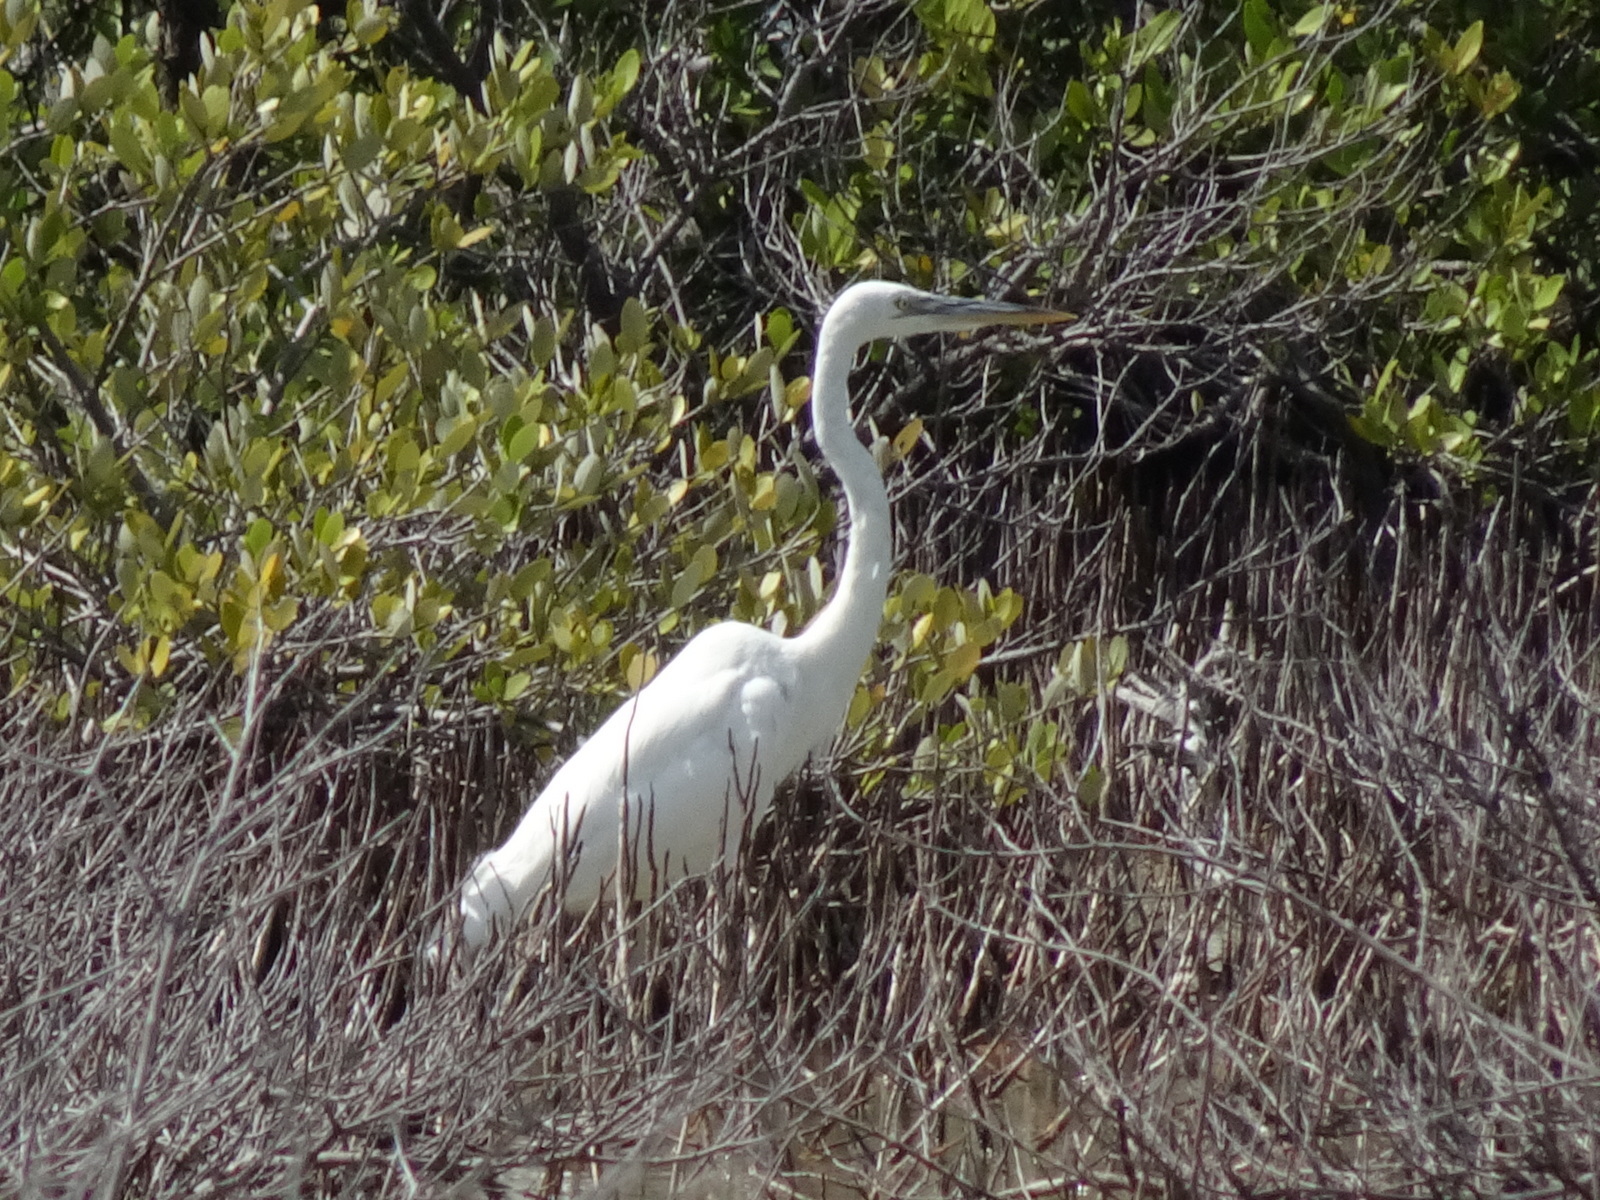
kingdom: Animalia
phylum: Chordata
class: Aves
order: Pelecaniformes
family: Ardeidae
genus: Ardea
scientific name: Ardea herodias
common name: Great blue heron
